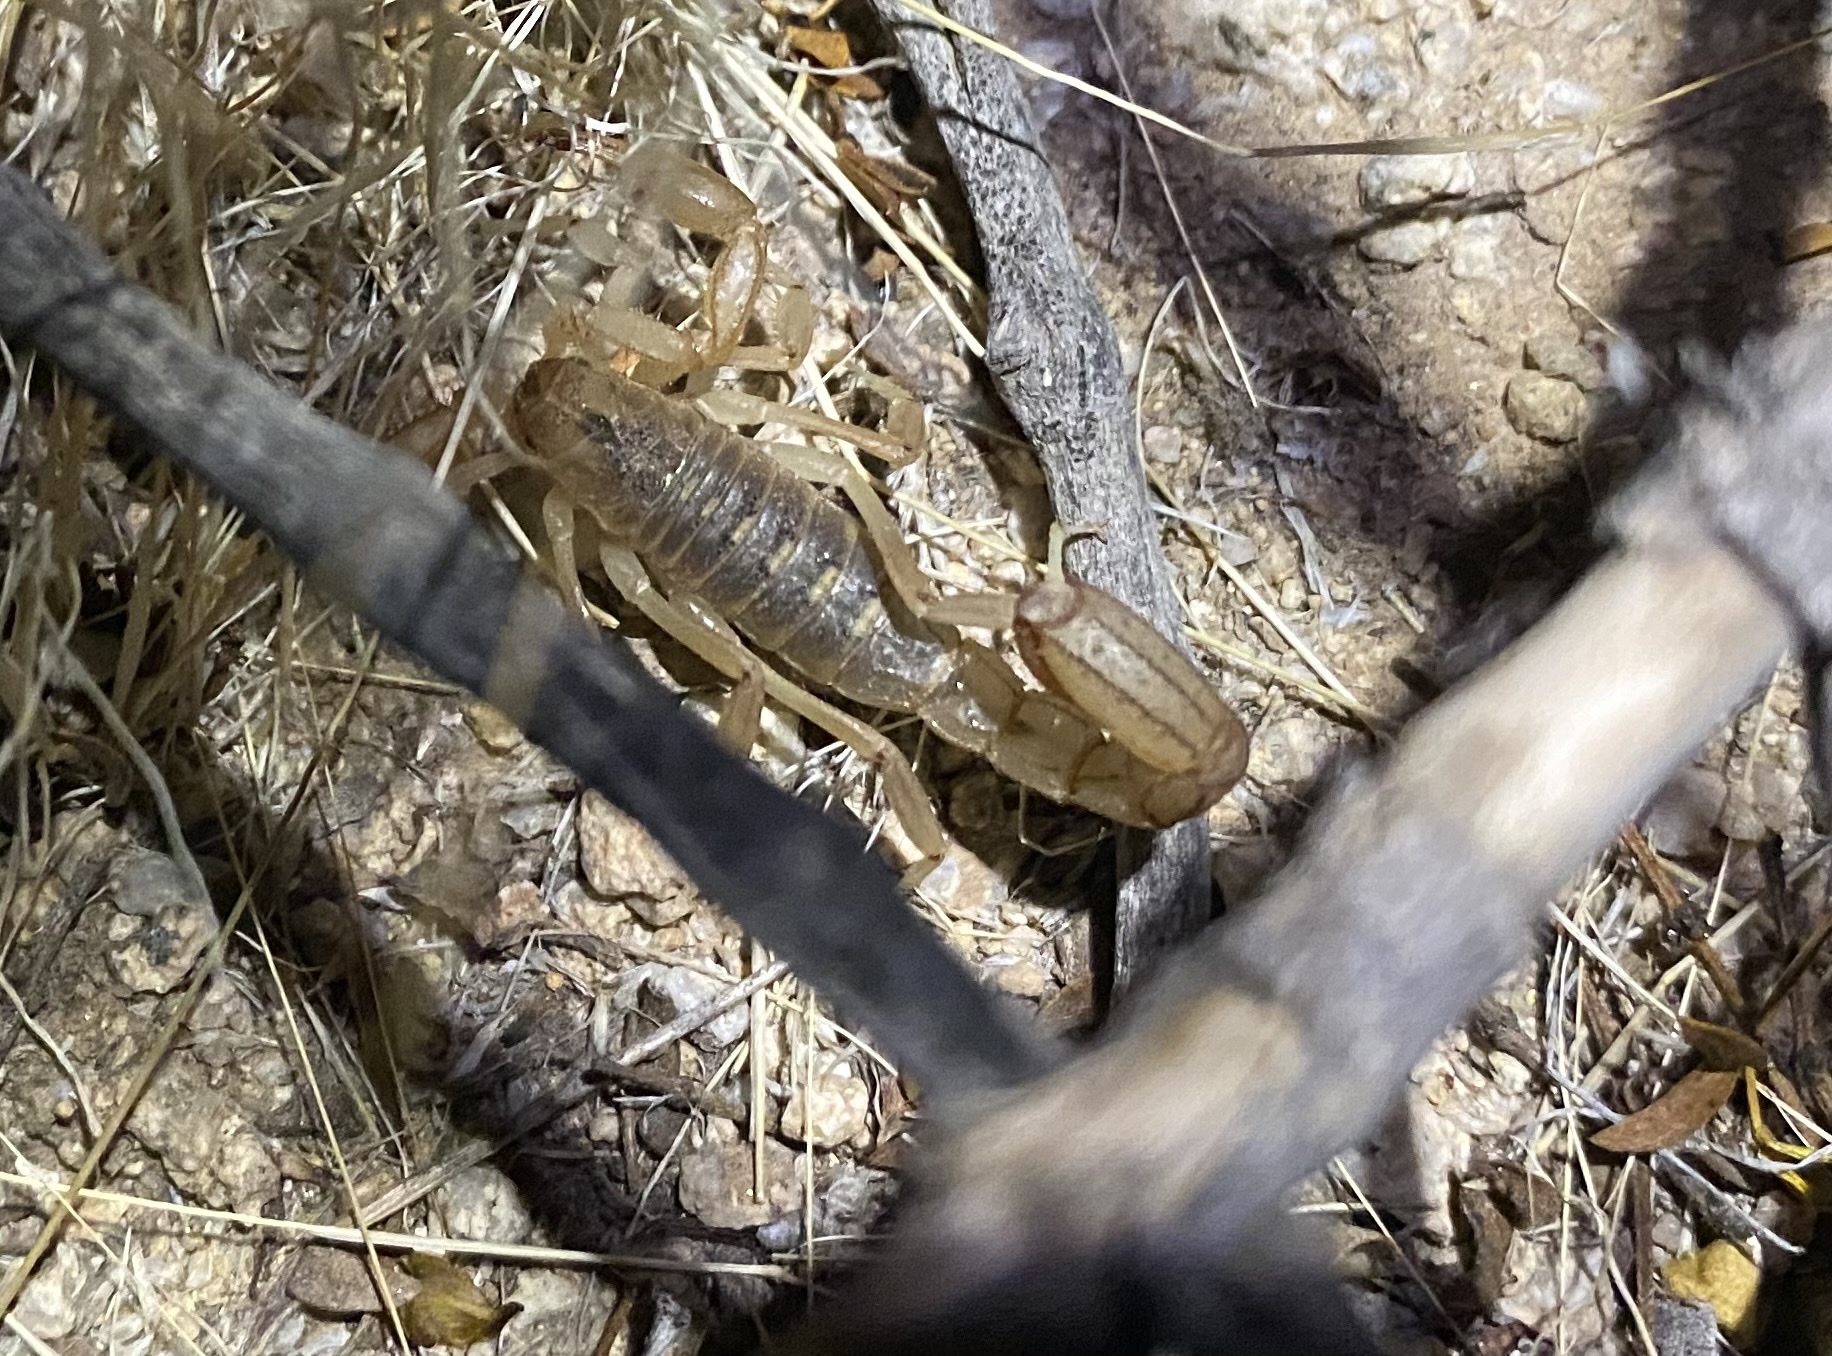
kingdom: Animalia
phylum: Arthropoda
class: Arachnida
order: Scorpiones
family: Vaejovidae
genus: Paravaejovis
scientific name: Paravaejovis spinigerus
